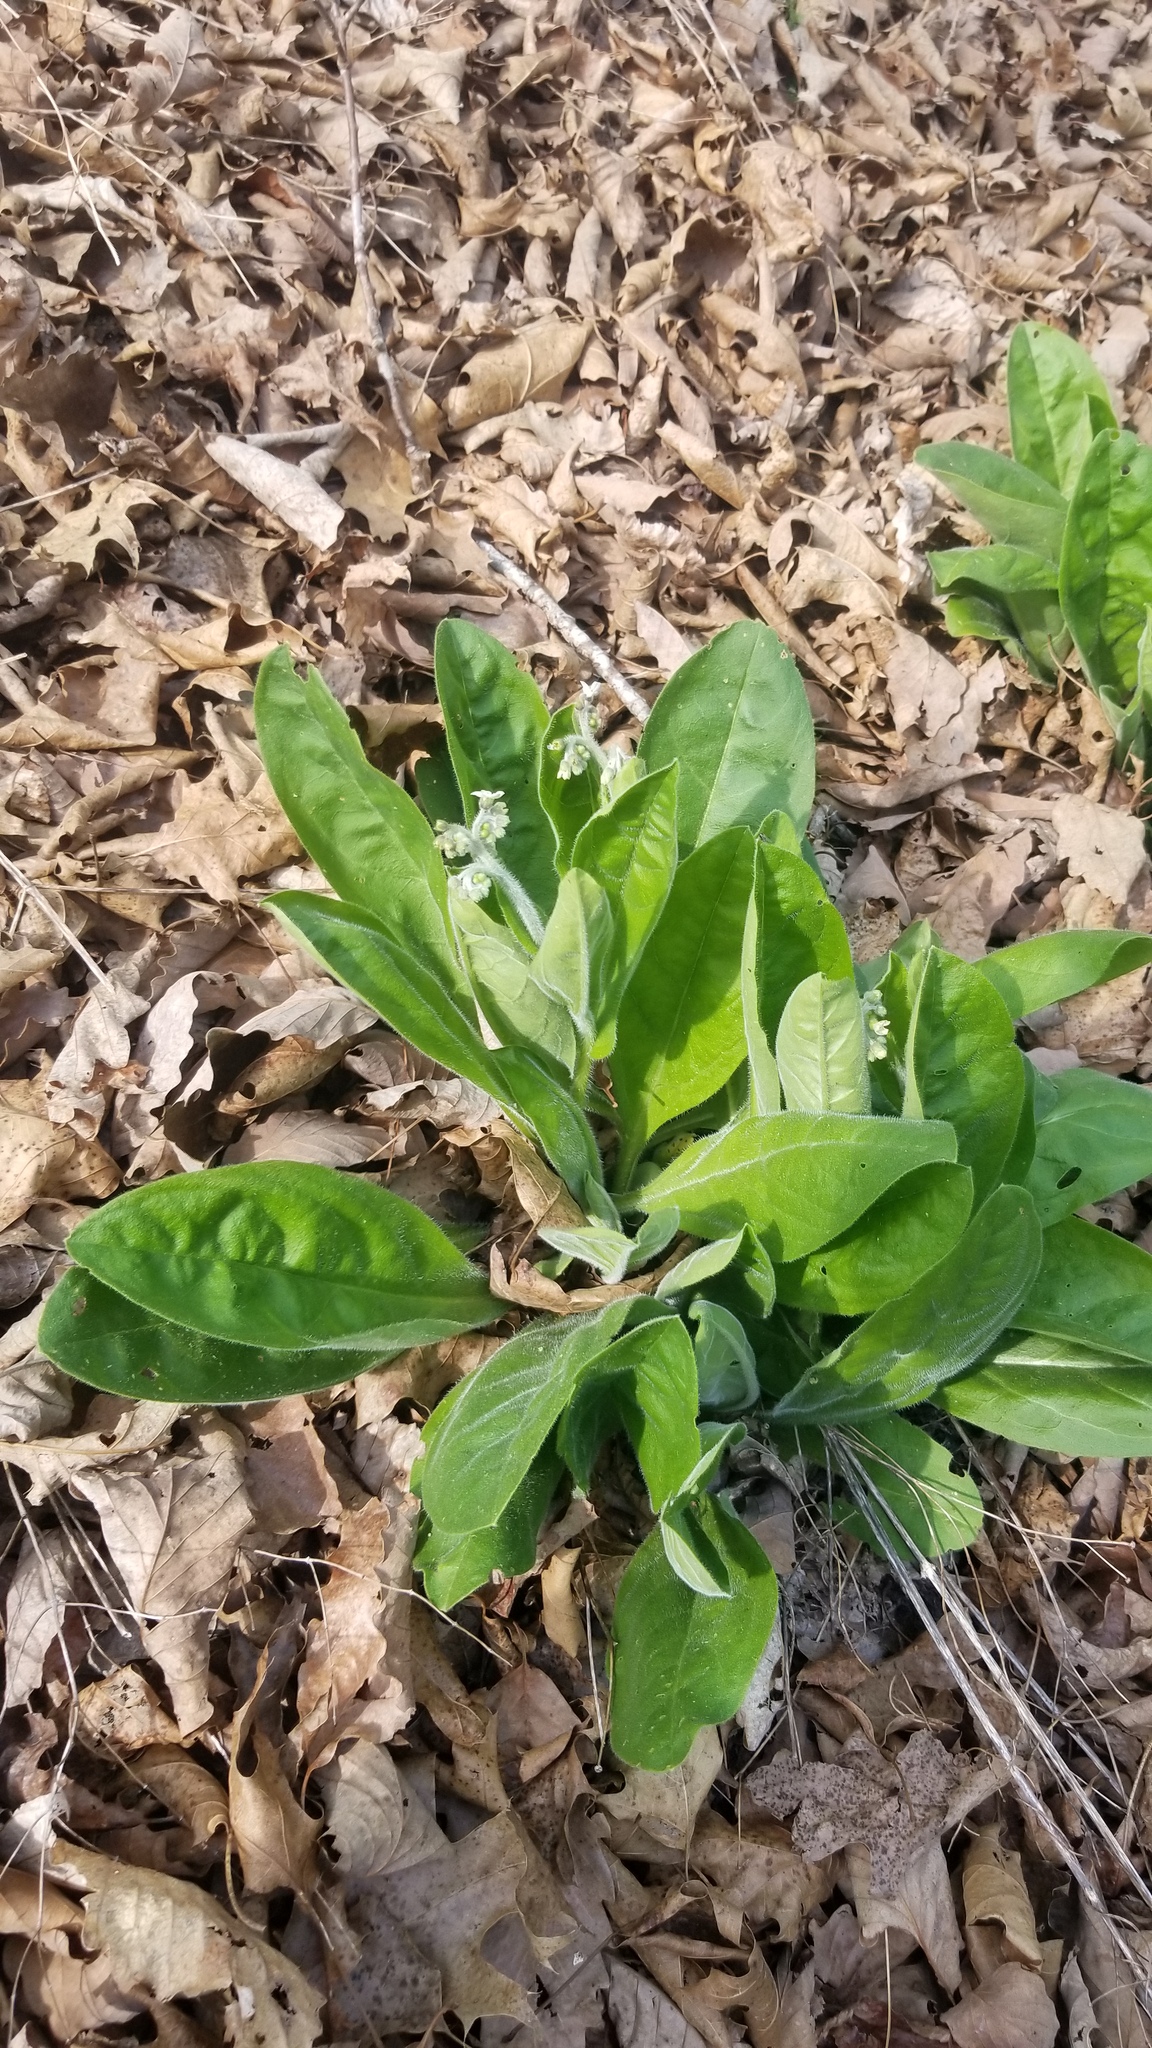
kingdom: Plantae
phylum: Tracheophyta
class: Magnoliopsida
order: Boraginales
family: Boraginaceae
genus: Andersonglossum
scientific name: Andersonglossum virginianum
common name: Wild comfrey
